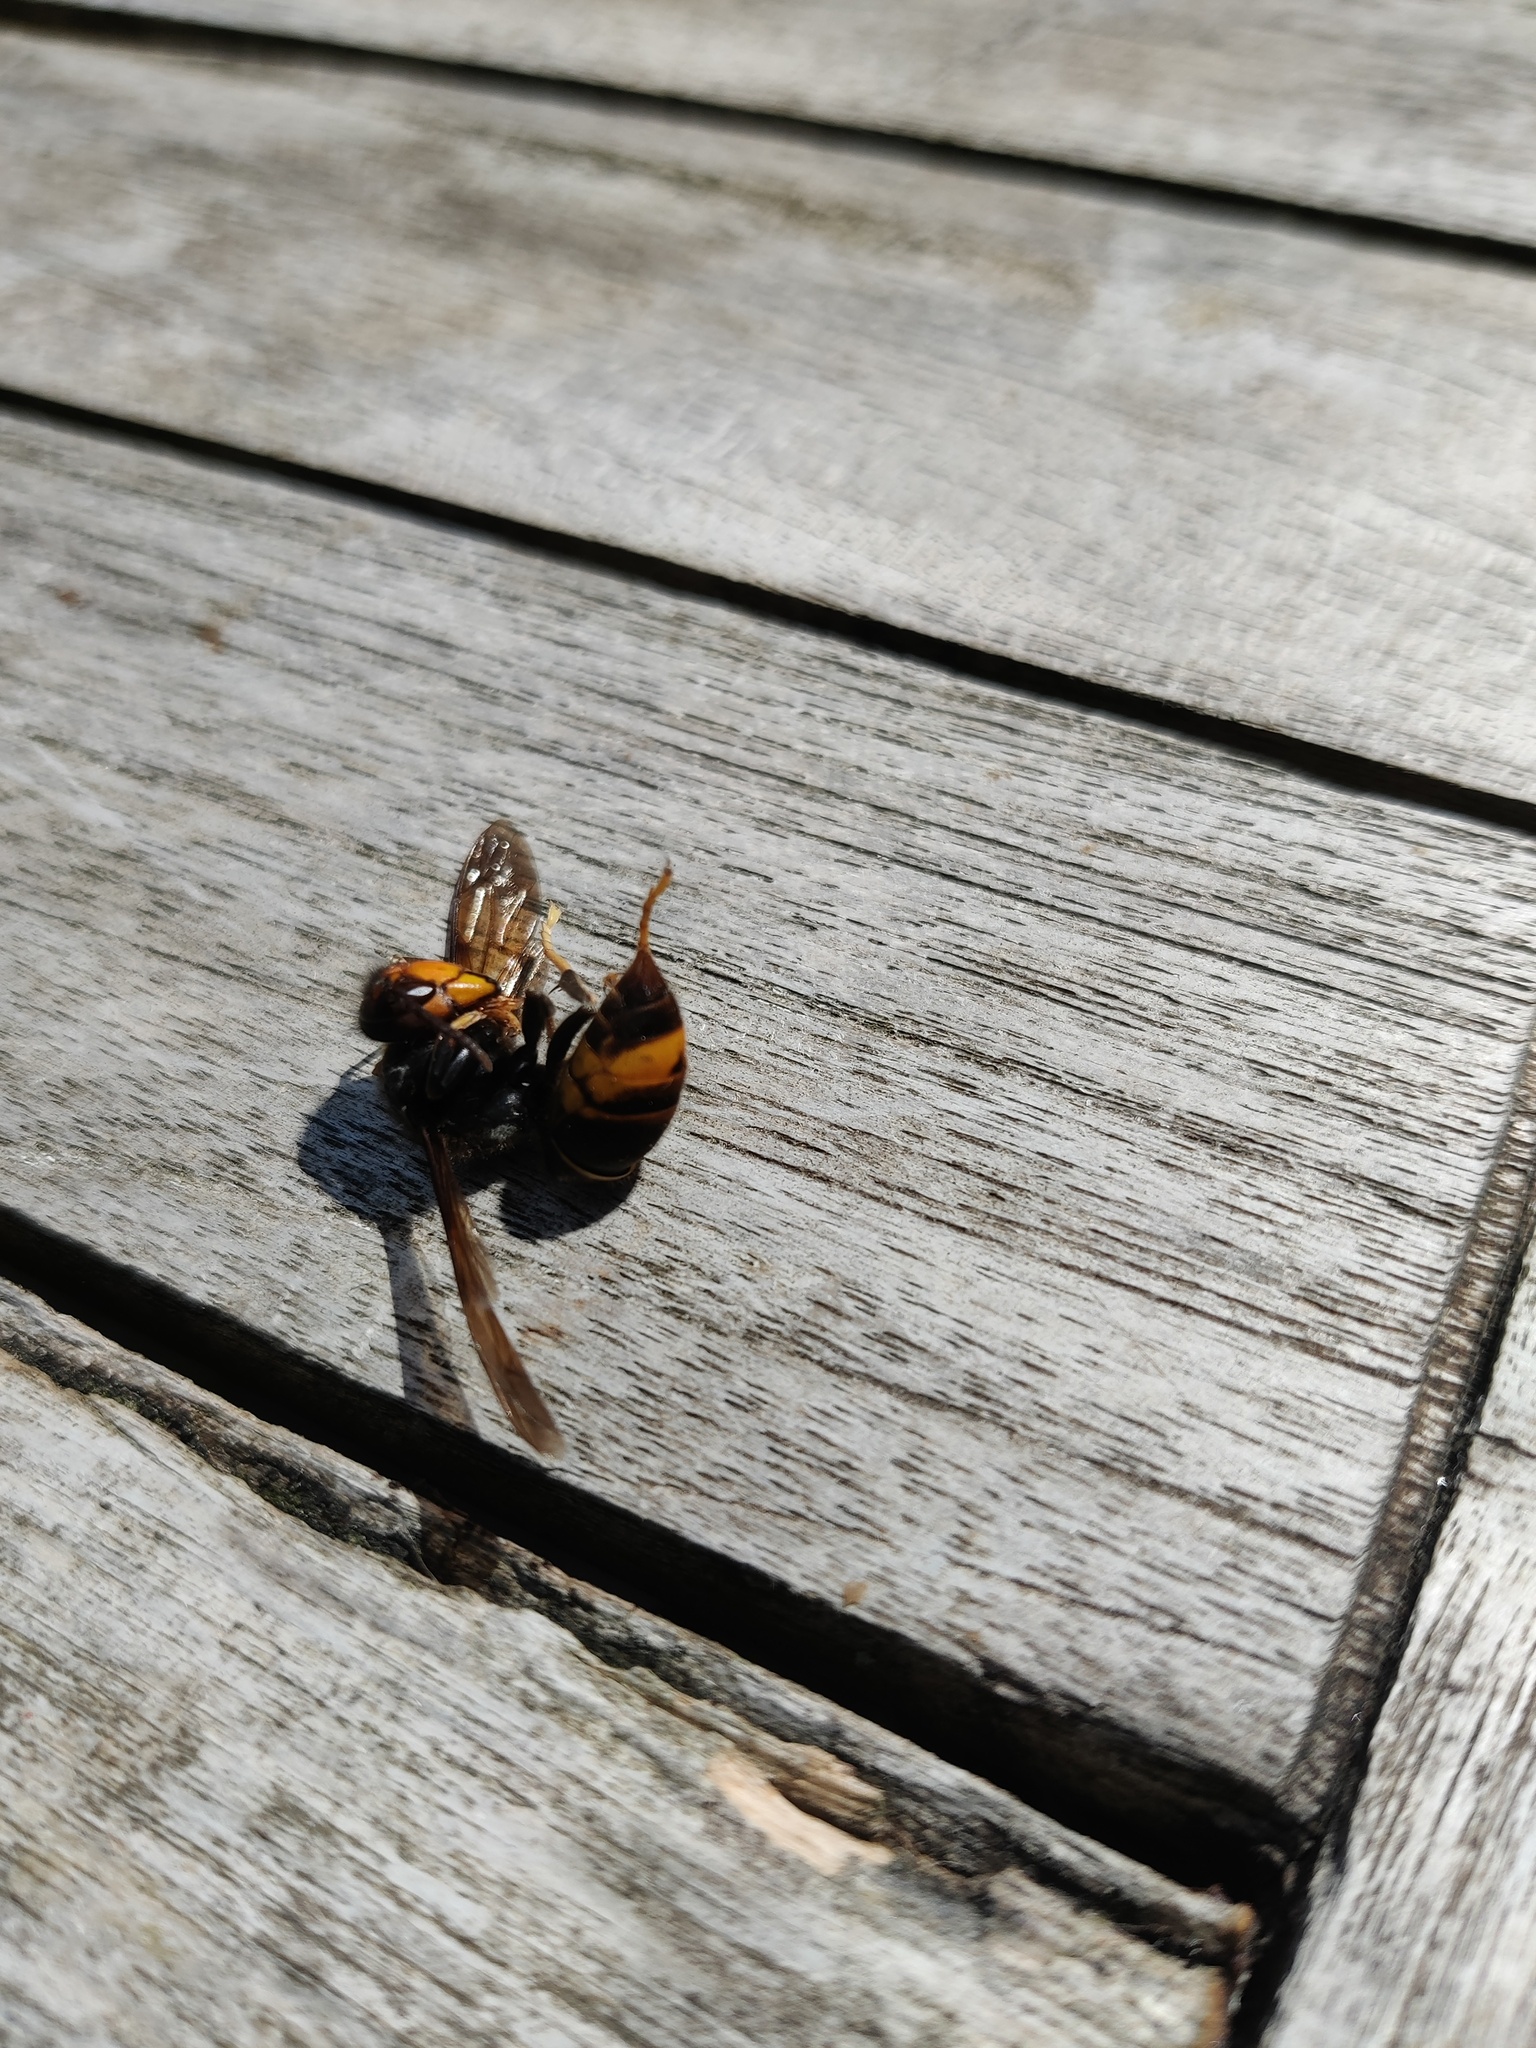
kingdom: Animalia
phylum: Arthropoda
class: Insecta
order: Hymenoptera
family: Vespidae
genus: Vespa
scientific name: Vespa velutina
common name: Asian hornet
